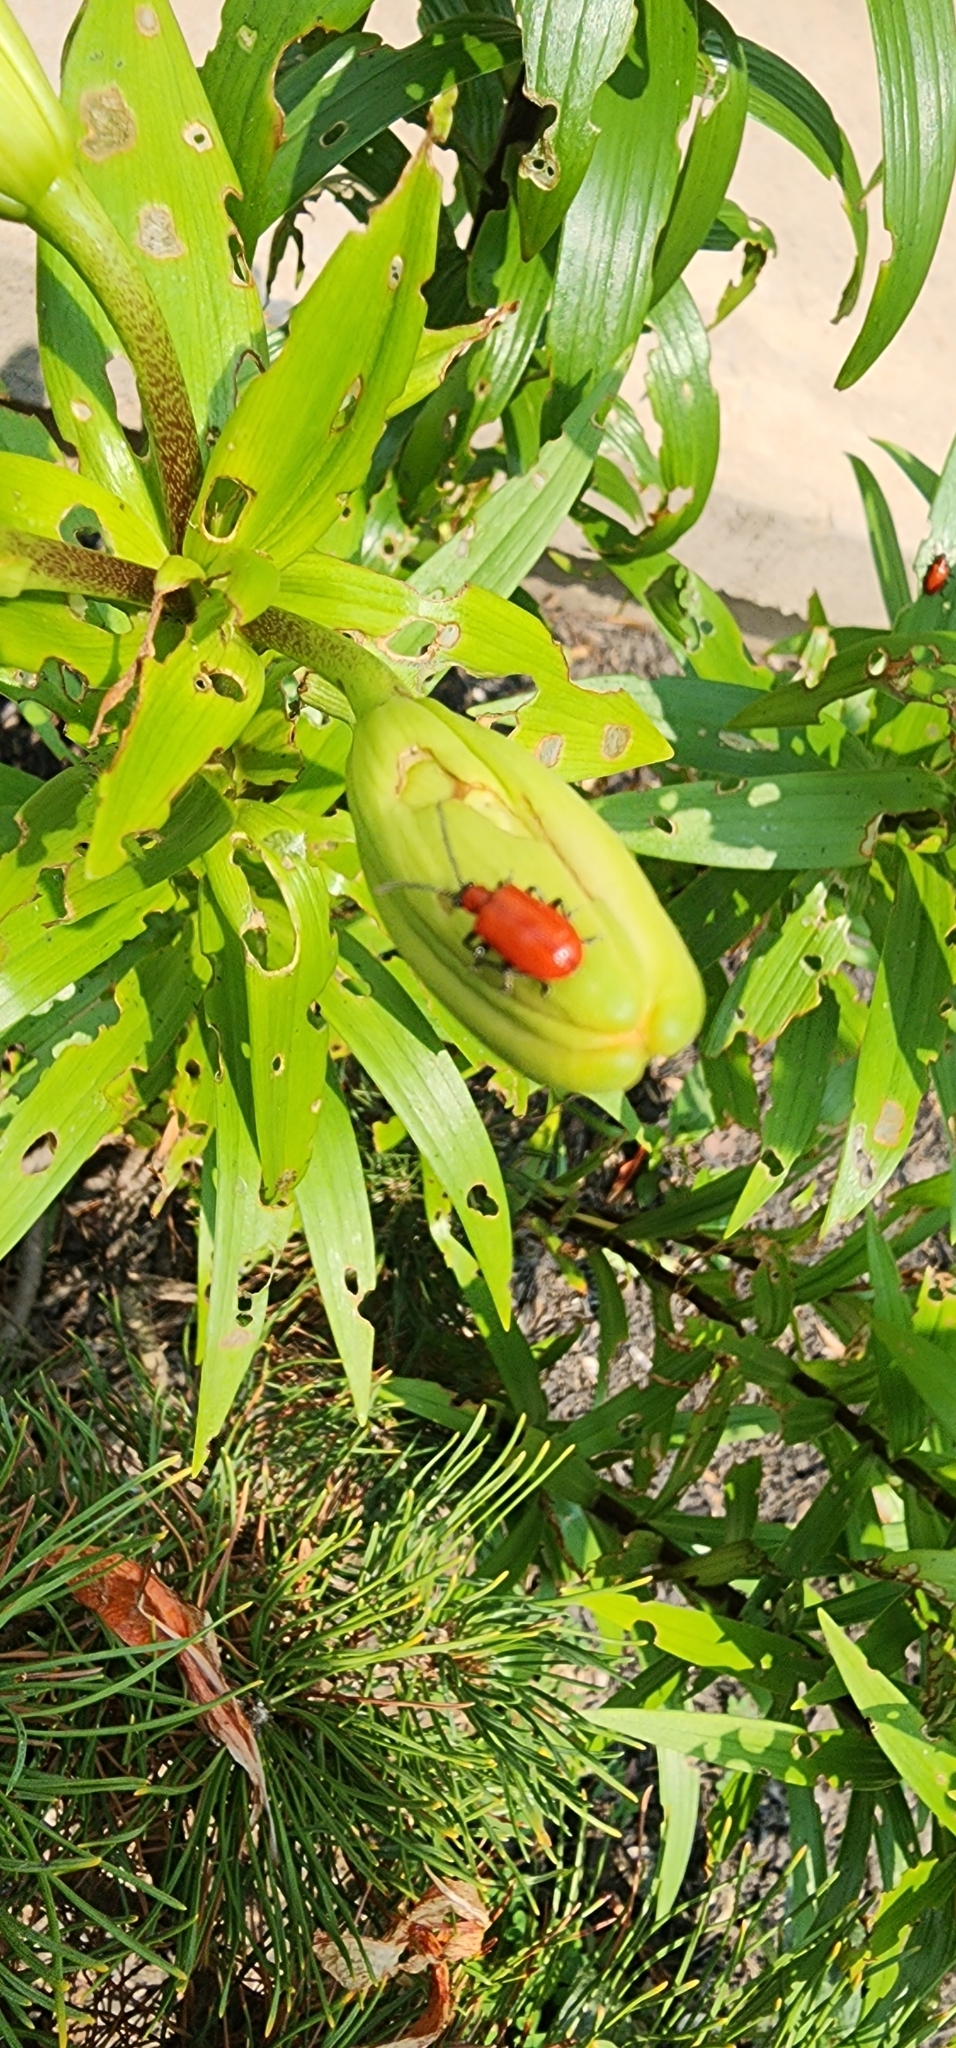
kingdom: Animalia
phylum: Arthropoda
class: Insecta
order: Coleoptera
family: Chrysomelidae
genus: Lilioceris
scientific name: Lilioceris lilii
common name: Lily beetle
